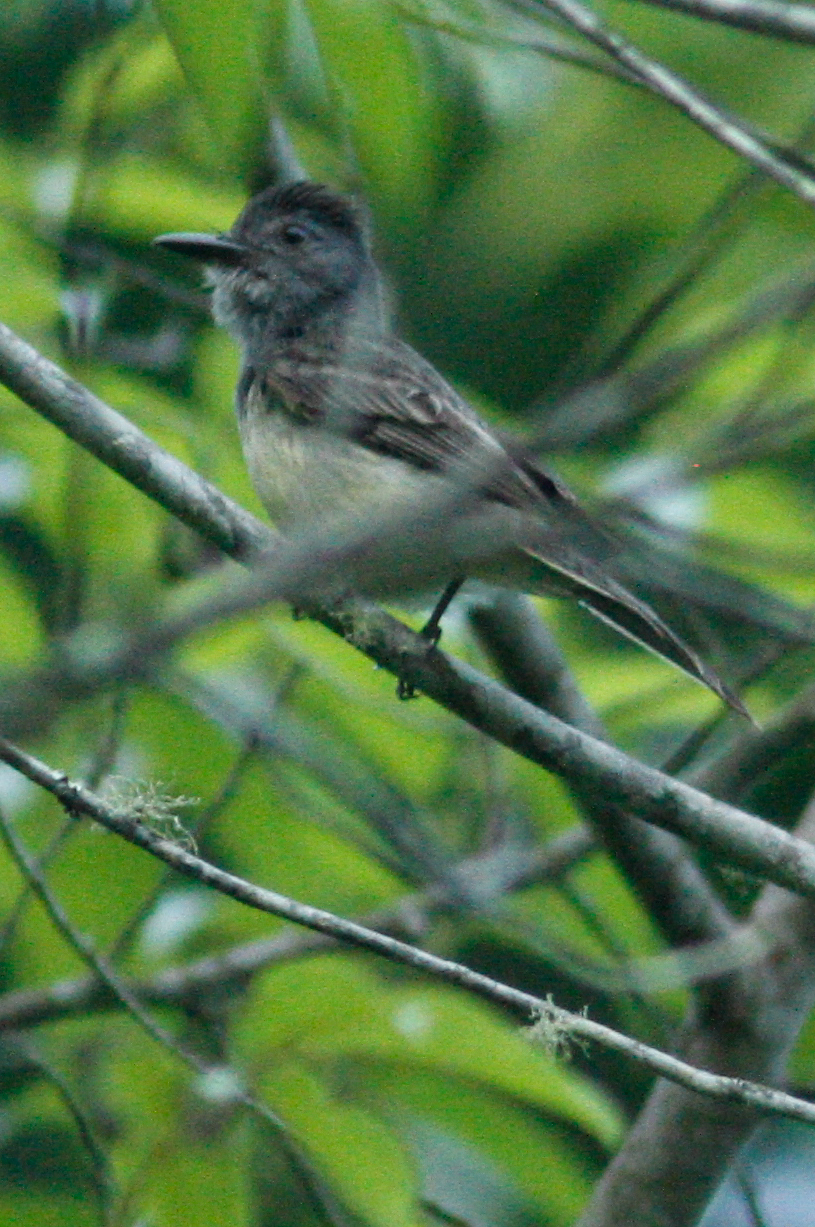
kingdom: Animalia
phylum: Chordata
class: Aves
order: Passeriformes
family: Tyrannidae
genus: Myiarchus
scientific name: Myiarchus phaeocephalus
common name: Sooty-crowned flycatcher
